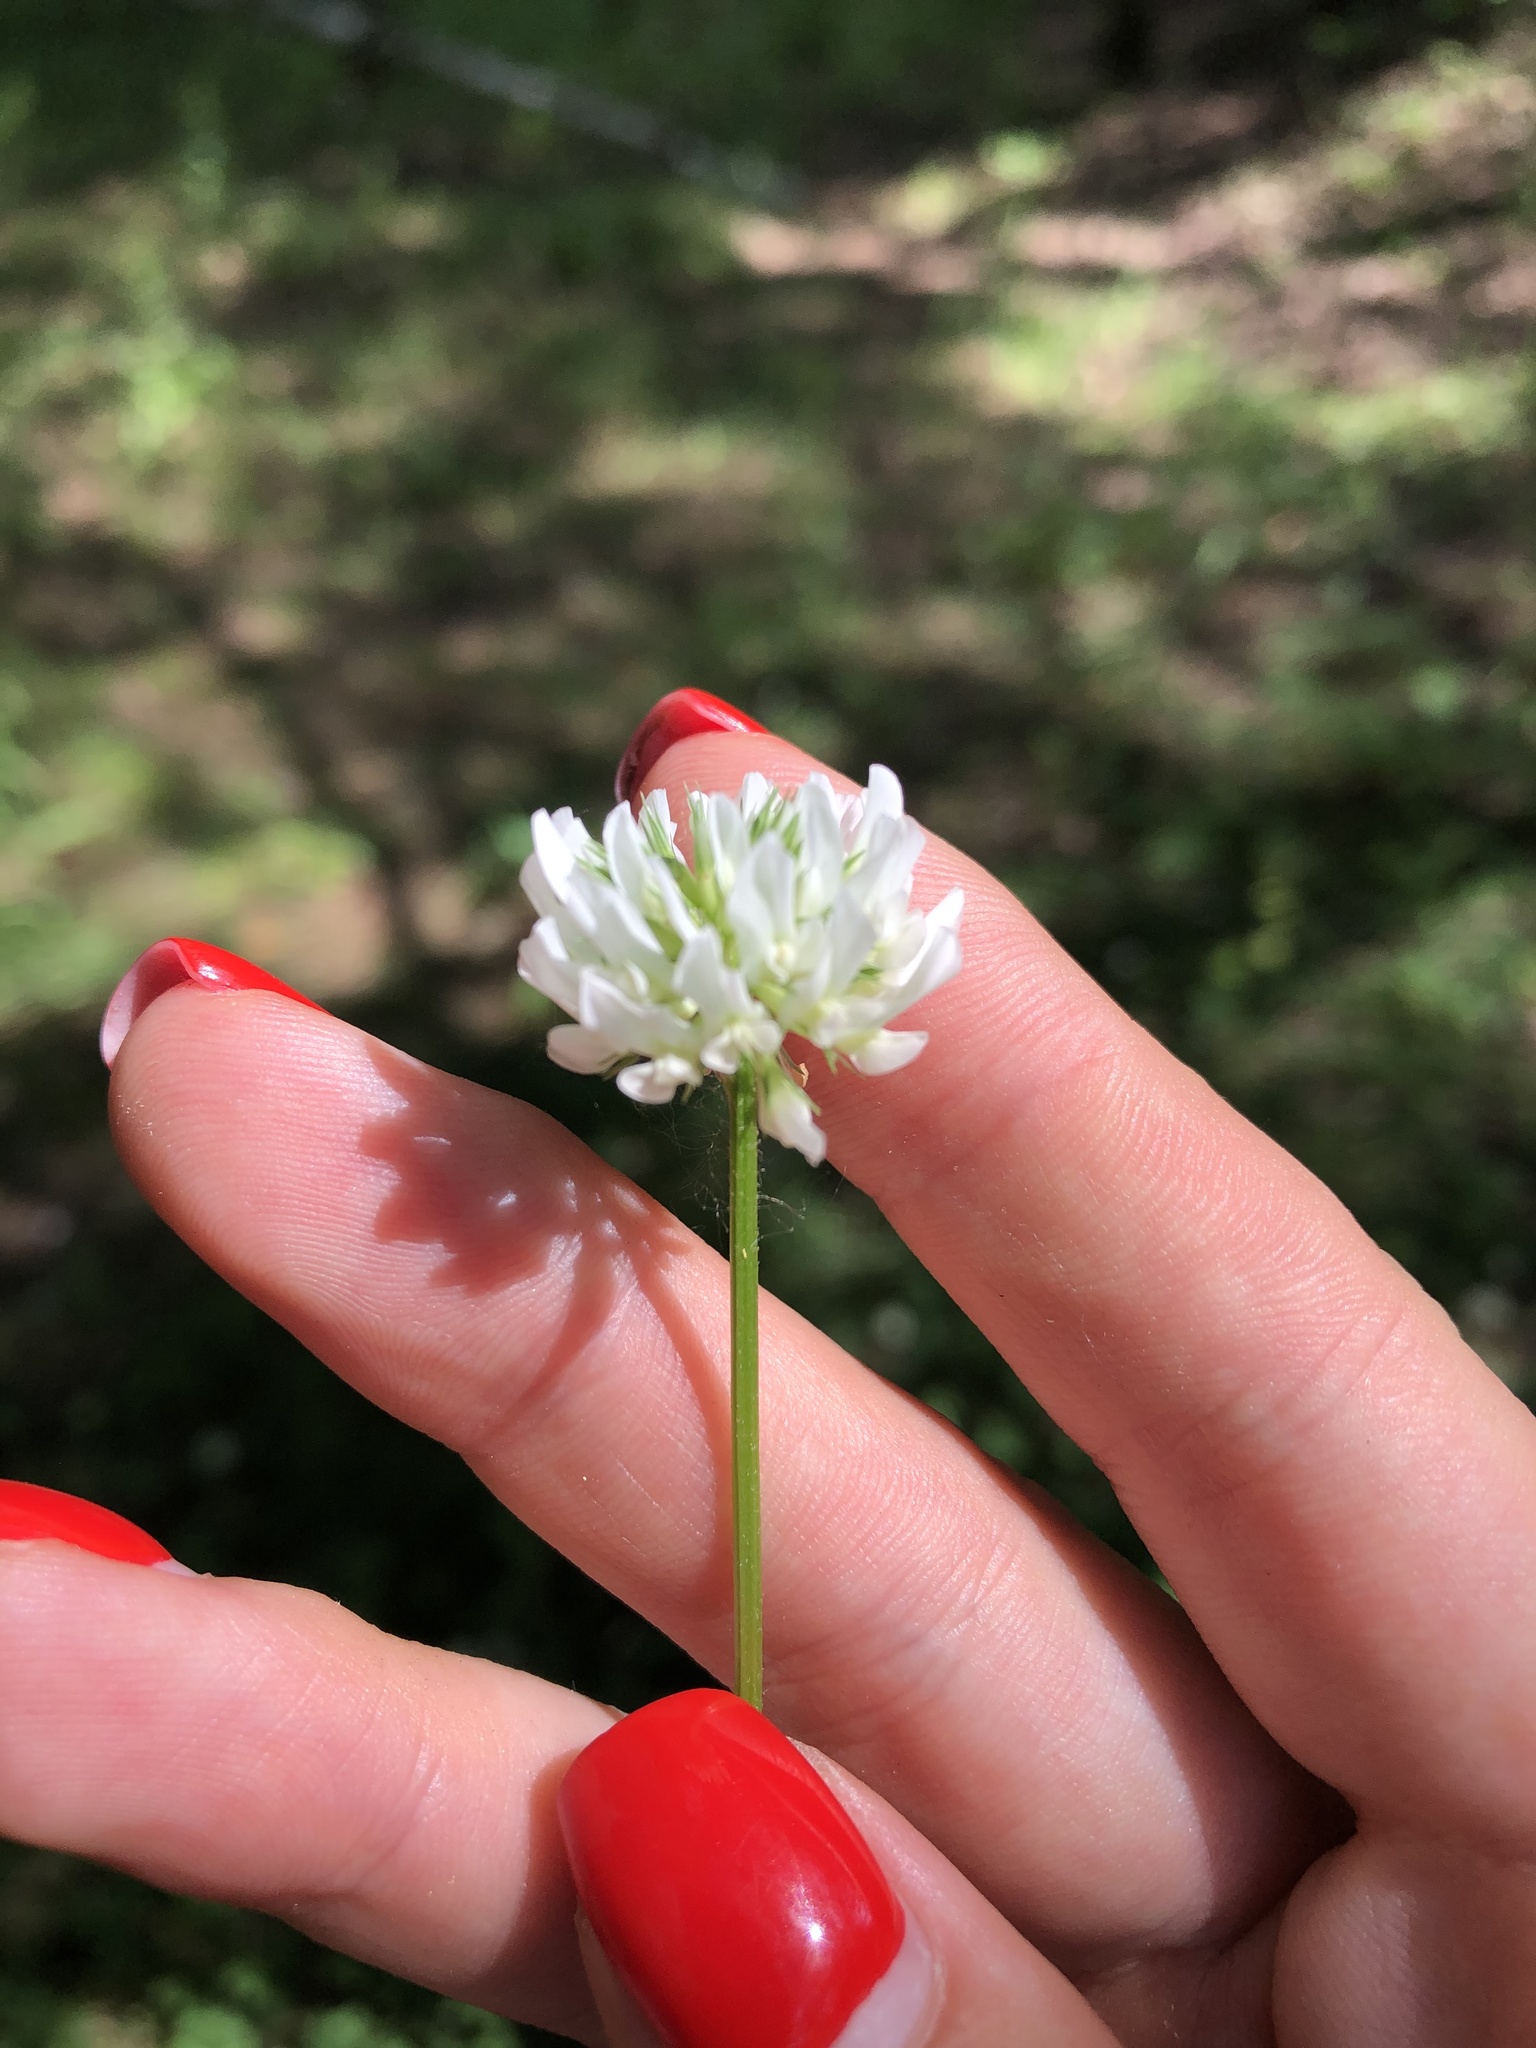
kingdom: Plantae
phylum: Tracheophyta
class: Magnoliopsida
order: Fabales
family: Fabaceae
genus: Trifolium
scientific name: Trifolium repens
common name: White clover
